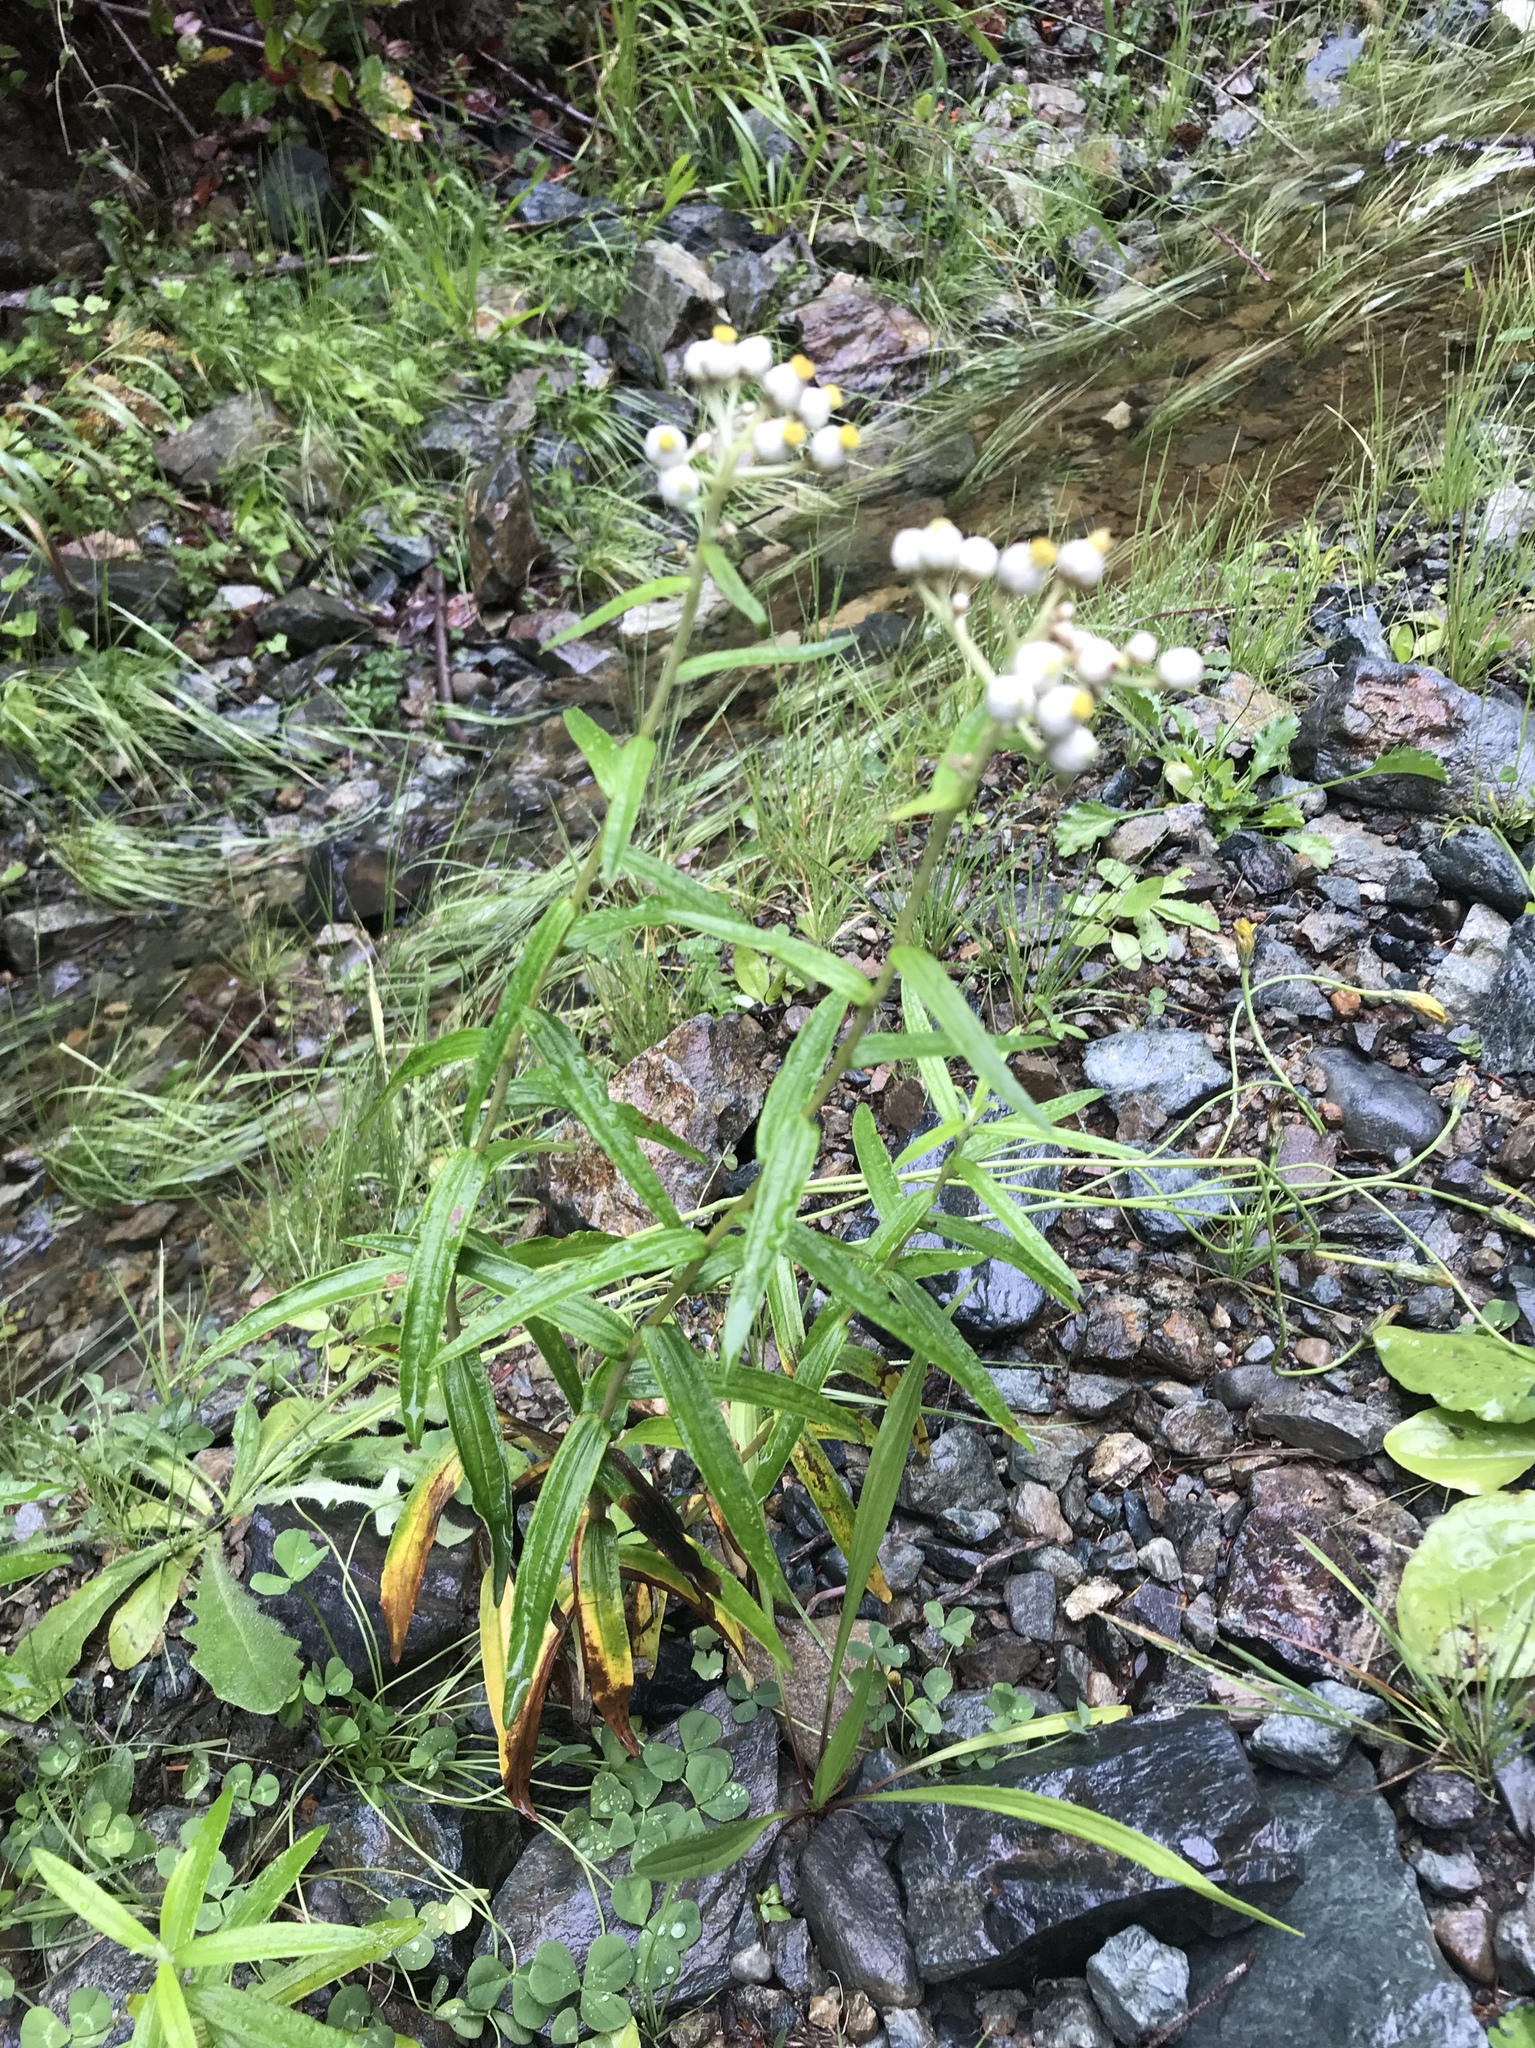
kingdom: Plantae
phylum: Tracheophyta
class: Magnoliopsida
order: Asterales
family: Asteraceae
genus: Anaphalis
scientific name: Anaphalis margaritacea
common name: Pearly everlasting
